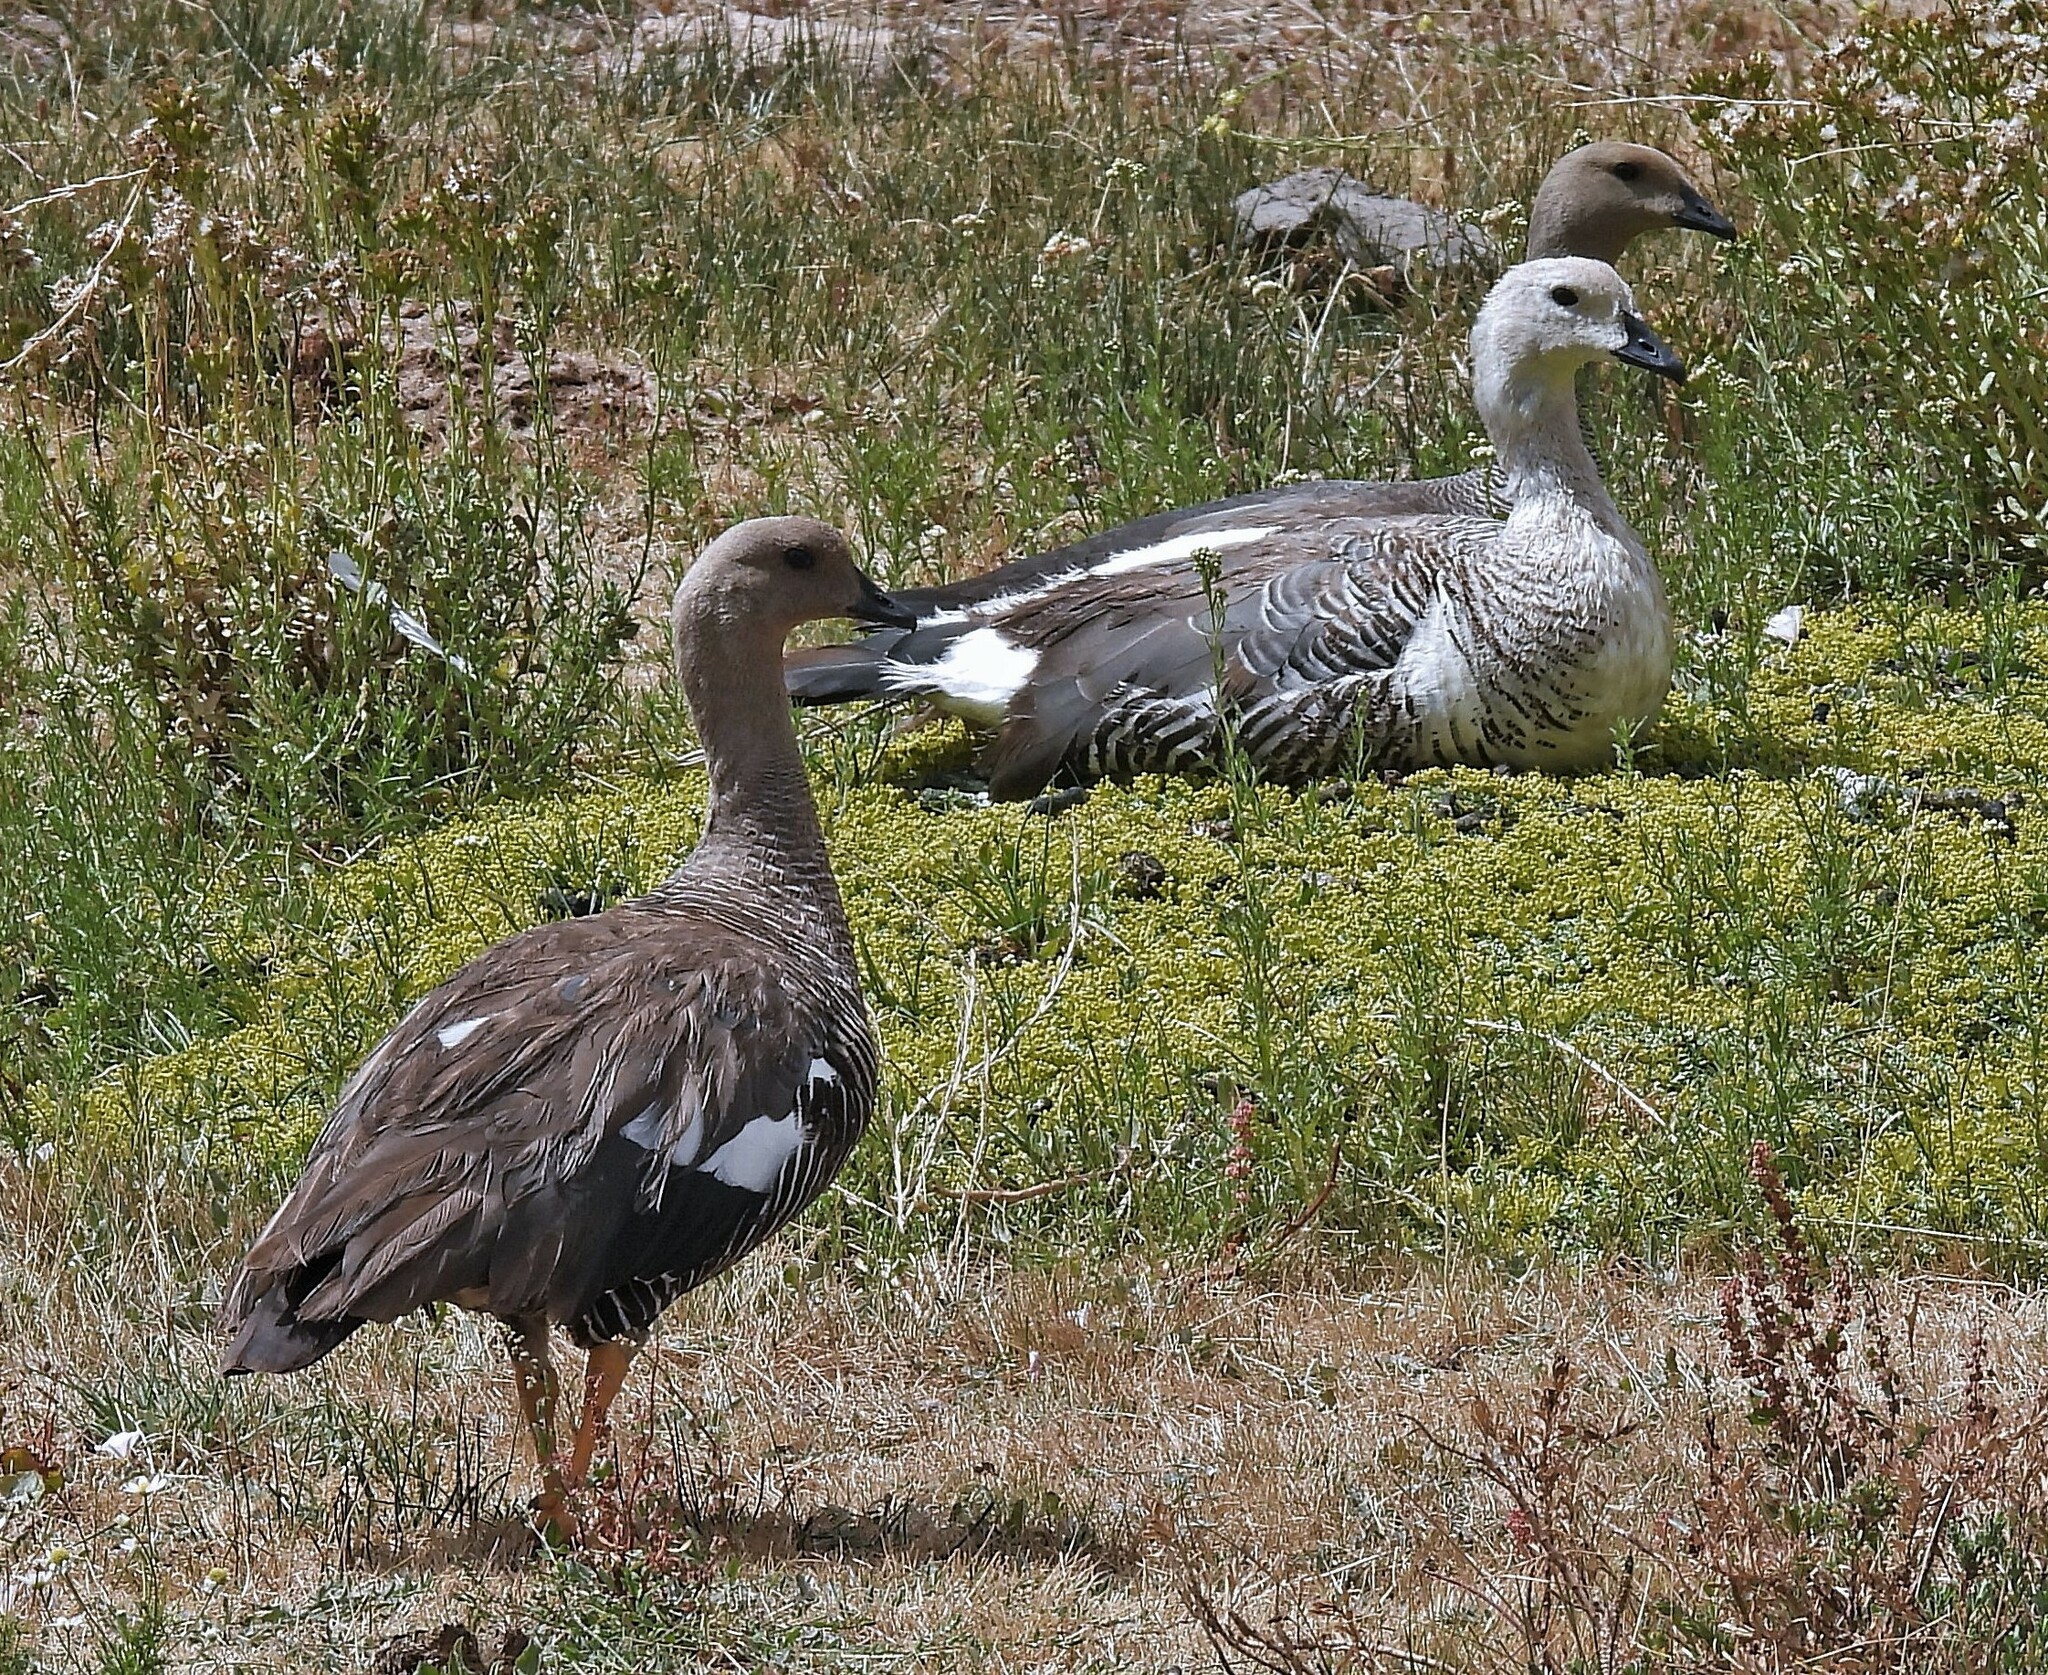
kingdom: Animalia
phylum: Chordata
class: Aves
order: Anseriformes
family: Anatidae
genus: Chloephaga
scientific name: Chloephaga picta
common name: Upland goose
